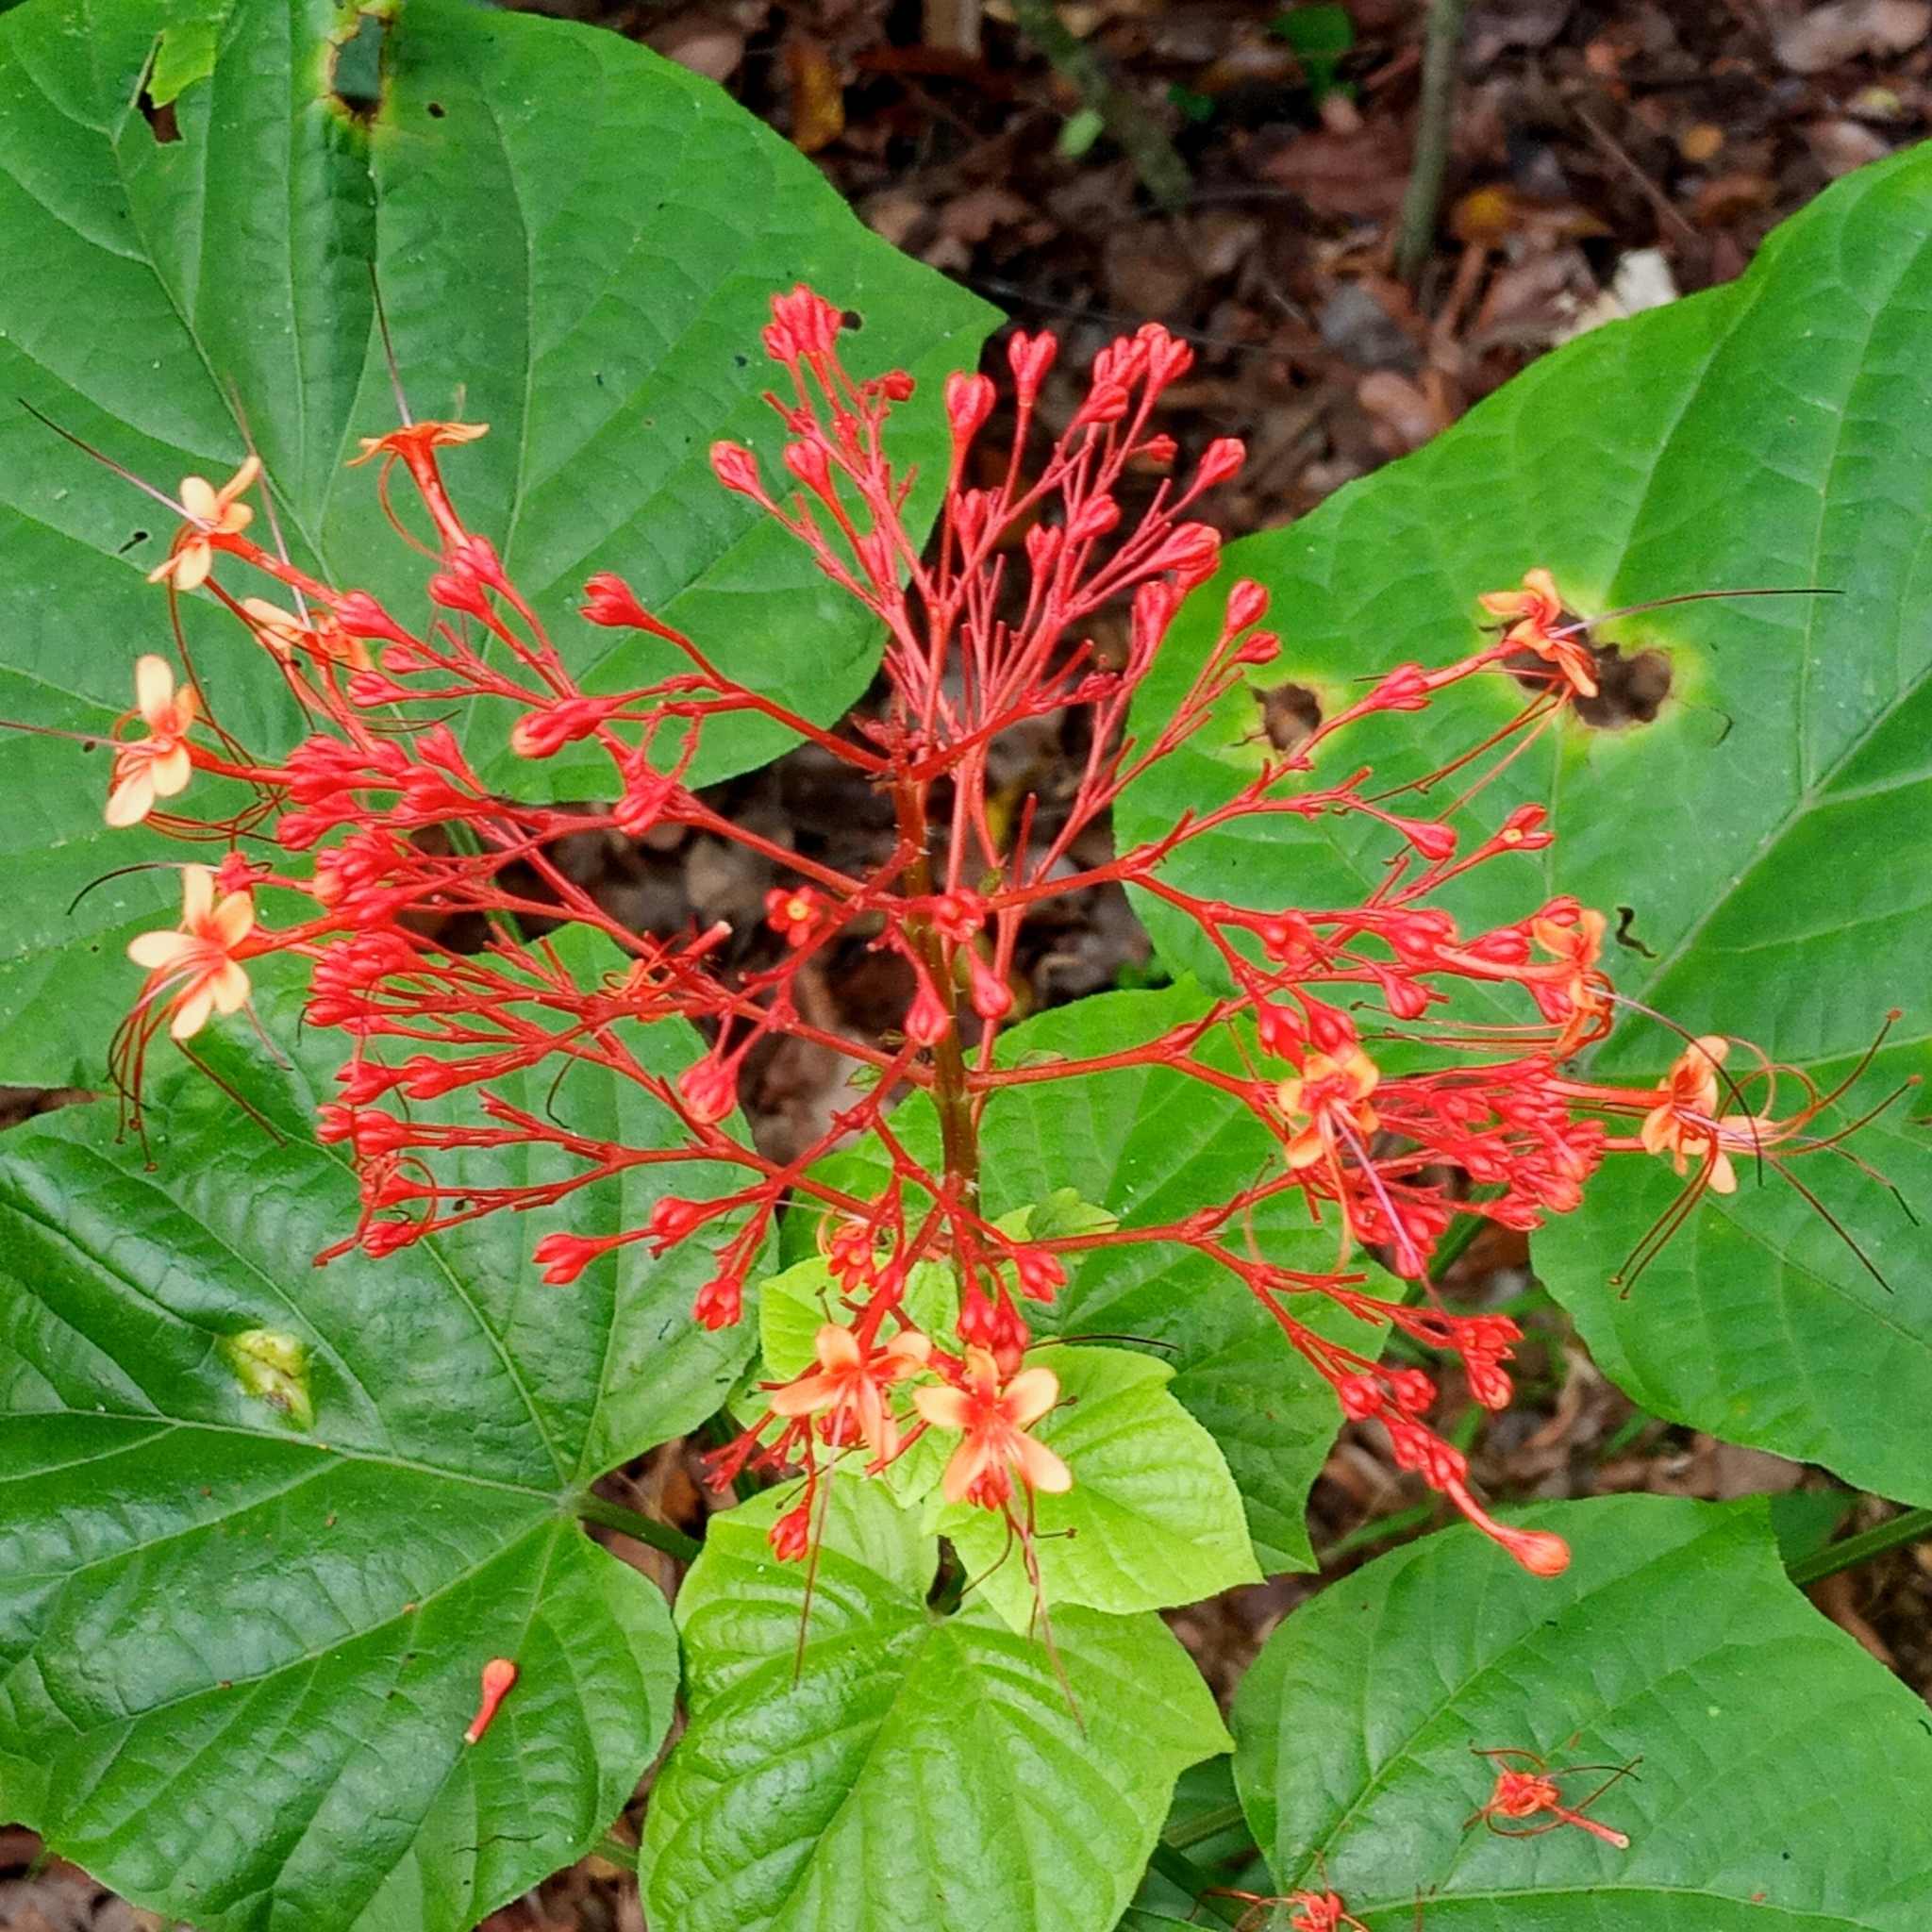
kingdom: Plantae
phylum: Tracheophyta
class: Magnoliopsida
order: Lamiales
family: Lamiaceae
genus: Clerodendrum
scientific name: Clerodendrum paniculatum
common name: Pagoda-flower
